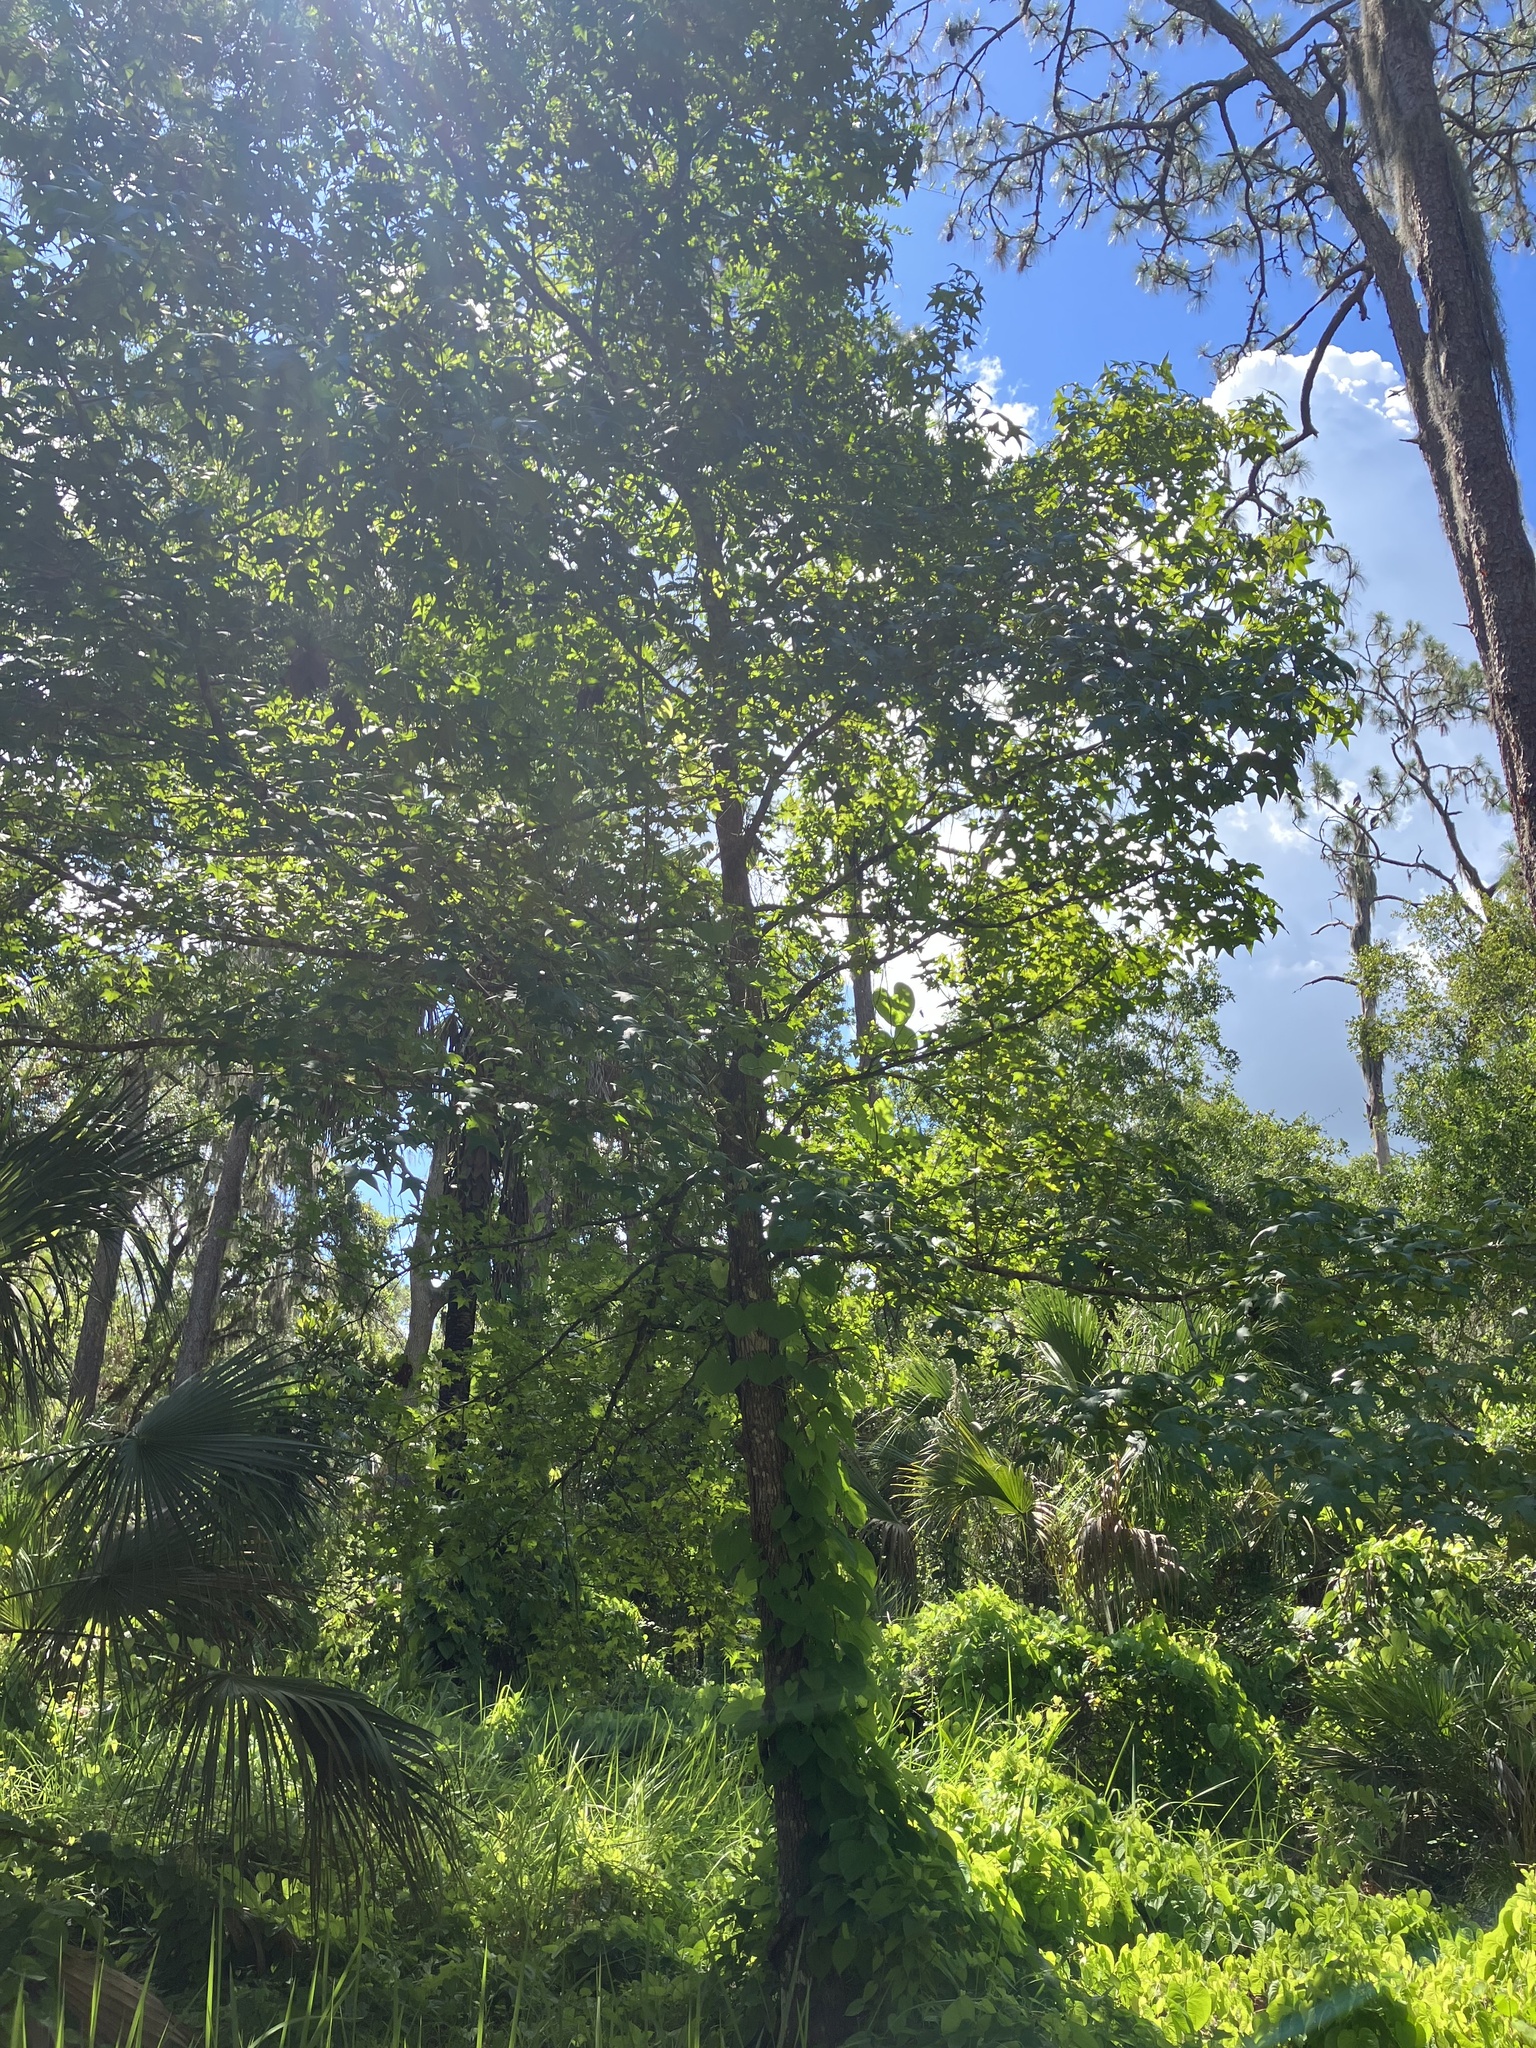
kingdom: Plantae
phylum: Tracheophyta
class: Magnoliopsida
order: Saxifragales
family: Altingiaceae
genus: Liquidambar
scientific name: Liquidambar styraciflua
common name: Sweet gum
